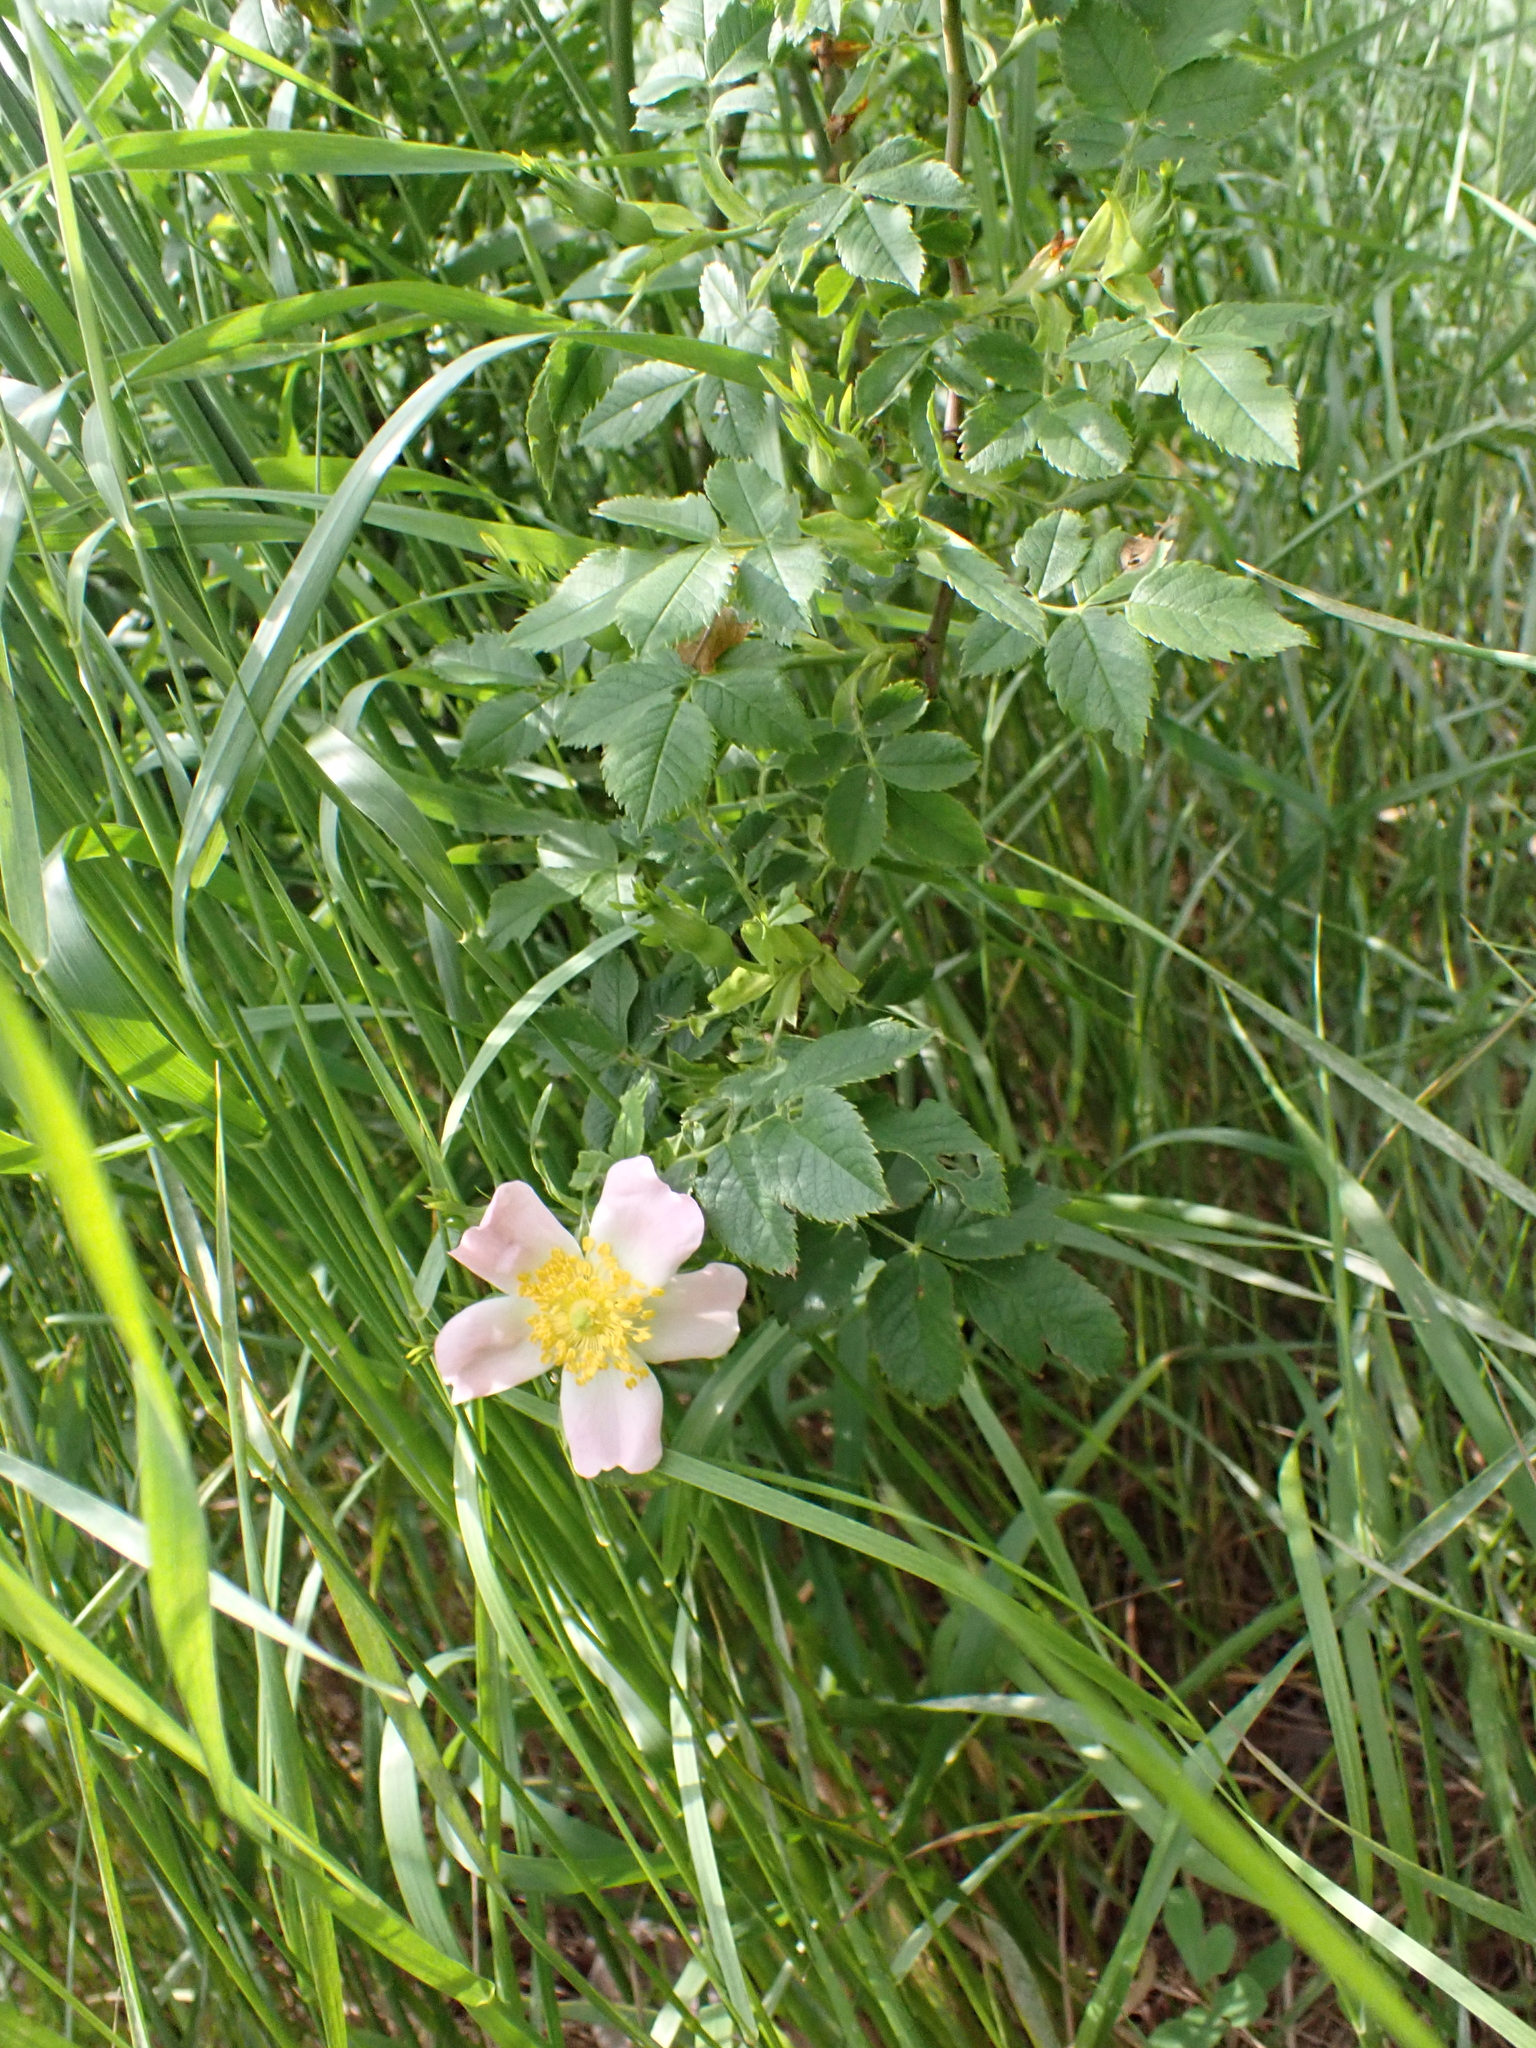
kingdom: Plantae
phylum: Tracheophyta
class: Magnoliopsida
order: Rosales
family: Rosaceae
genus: Rosa
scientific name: Rosa canina
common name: Dog rose
